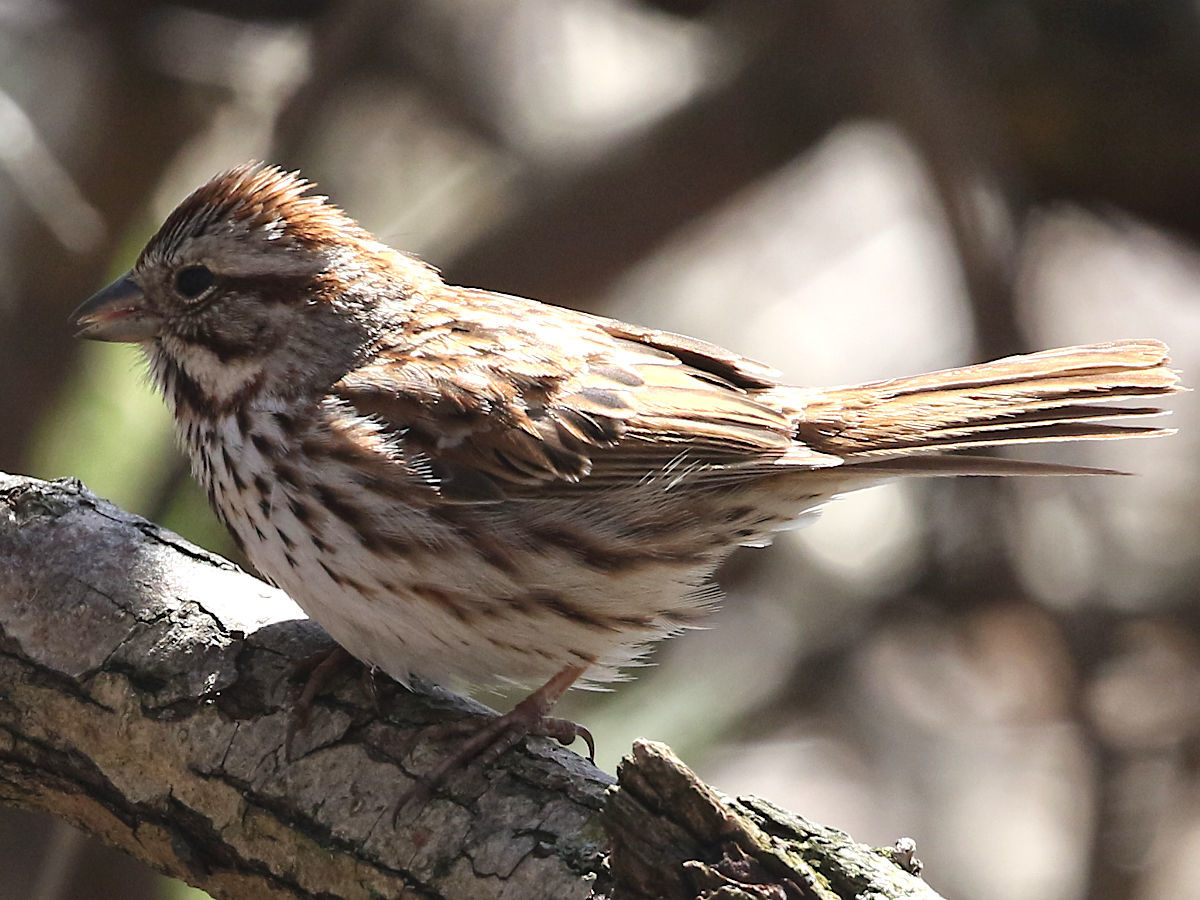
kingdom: Animalia
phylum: Chordata
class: Aves
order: Passeriformes
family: Passerellidae
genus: Melospiza
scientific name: Melospiza melodia
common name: Song sparrow
